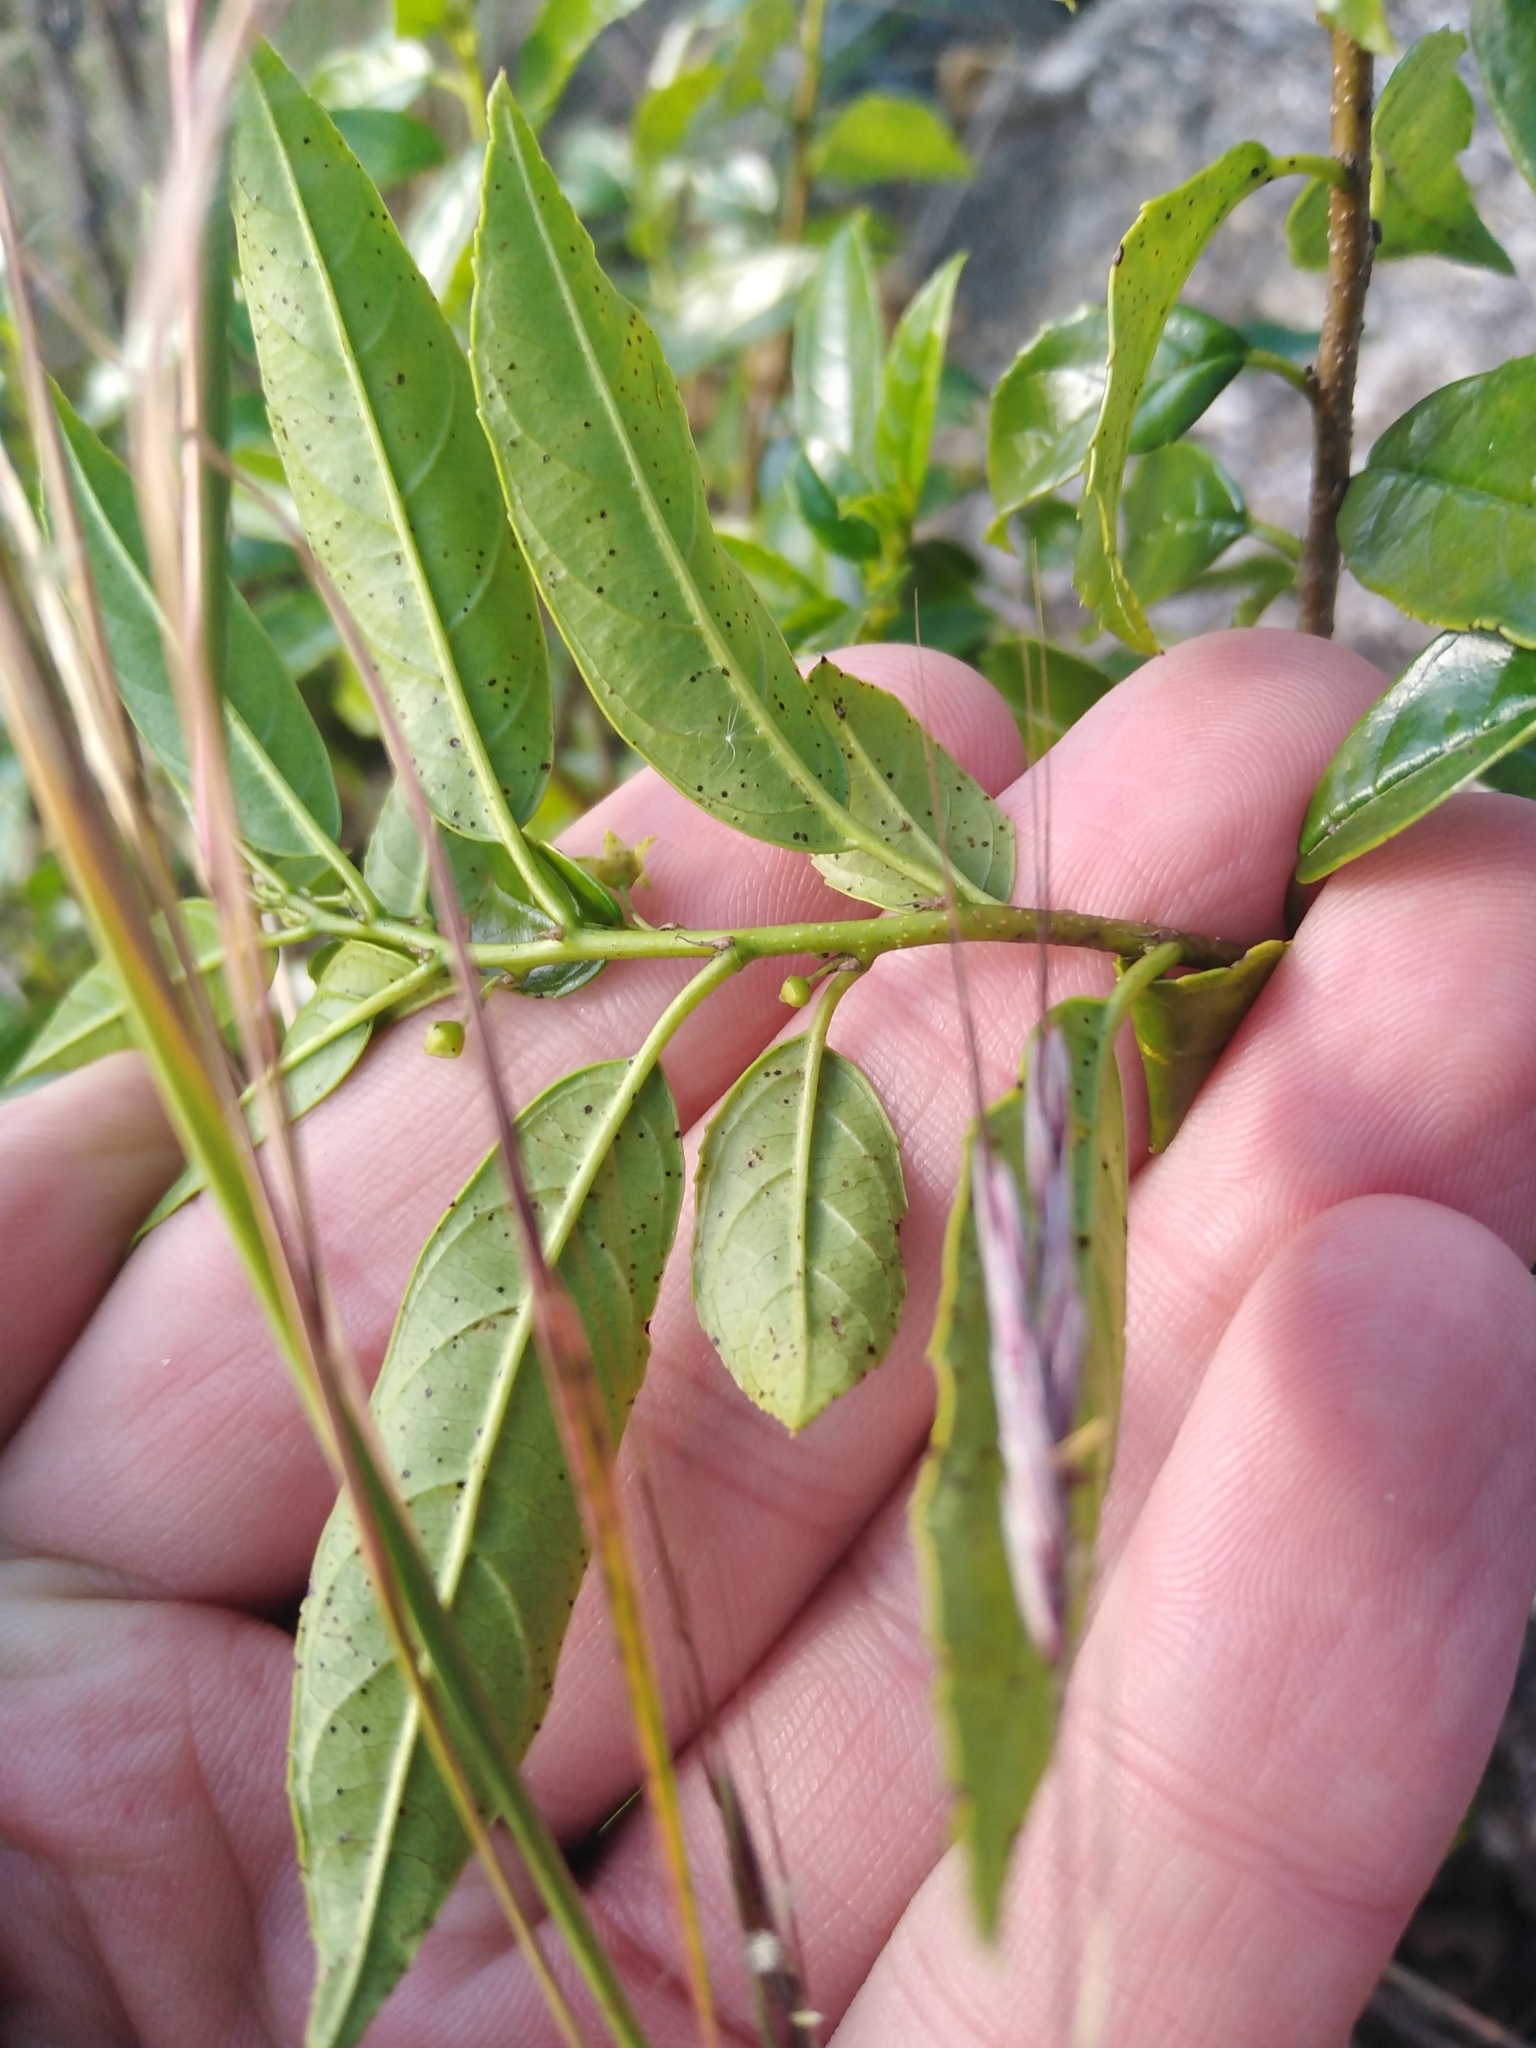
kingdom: Plantae
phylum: Tracheophyta
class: Magnoliopsida
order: Rosales
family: Rhamnaceae
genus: Rhamnus
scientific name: Rhamnus prinoides
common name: Dogwood
